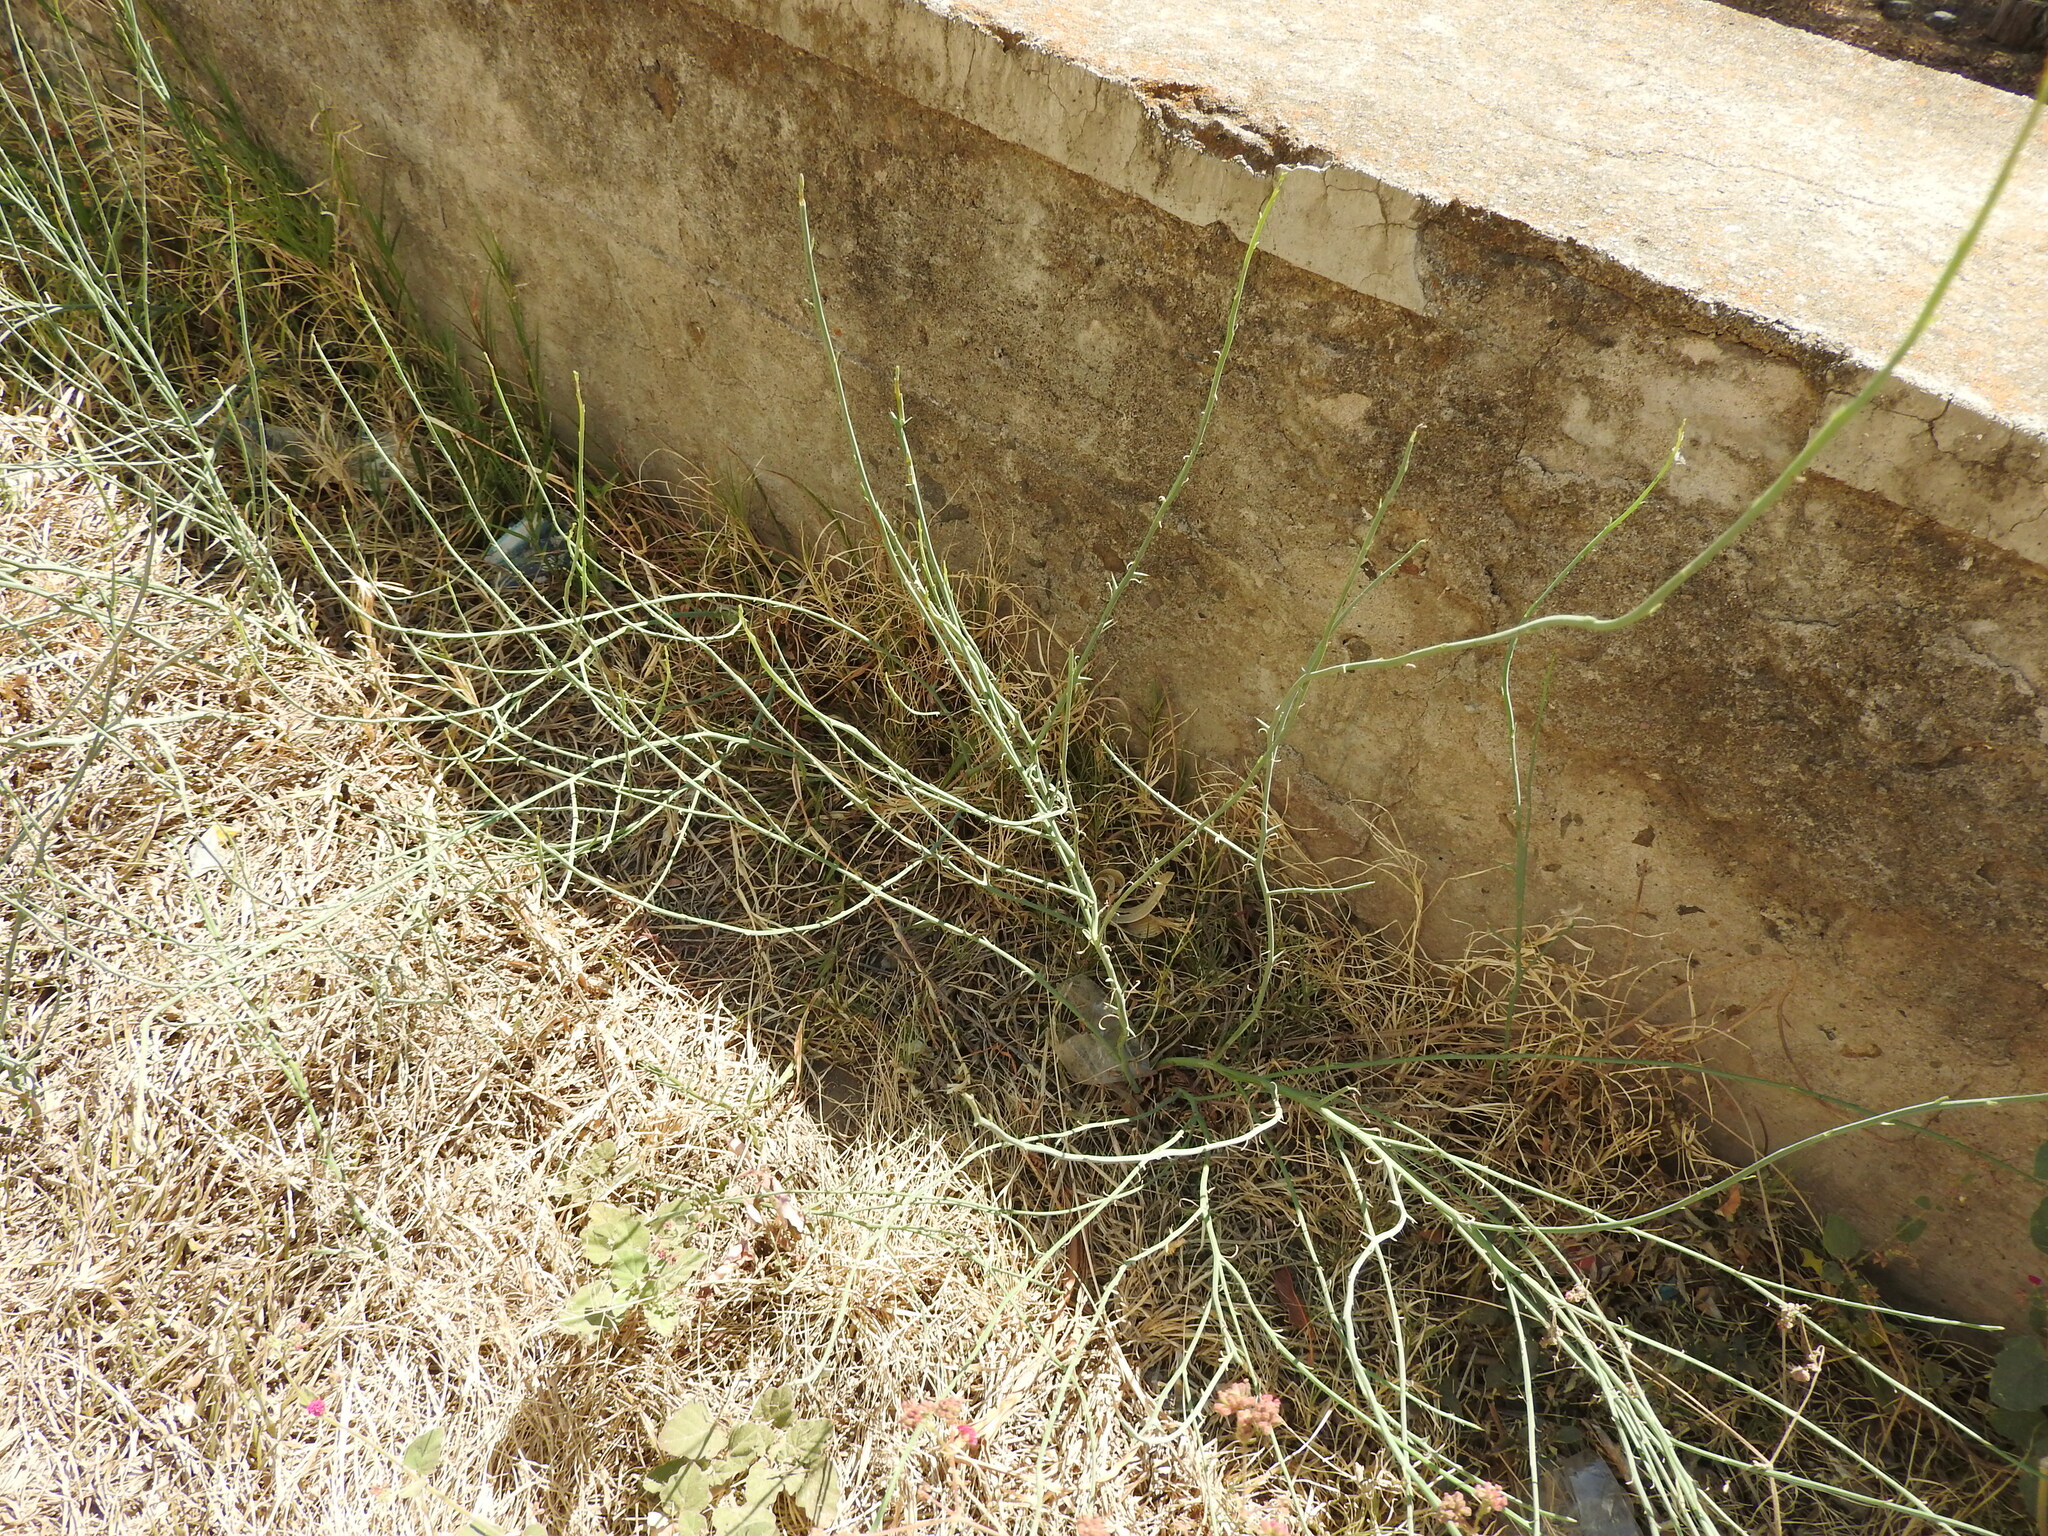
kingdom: Plantae
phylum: Tracheophyta
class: Magnoliopsida
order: Lamiales
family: Verbenaceae
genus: Verbena
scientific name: Verbena officinalis
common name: Vervain
